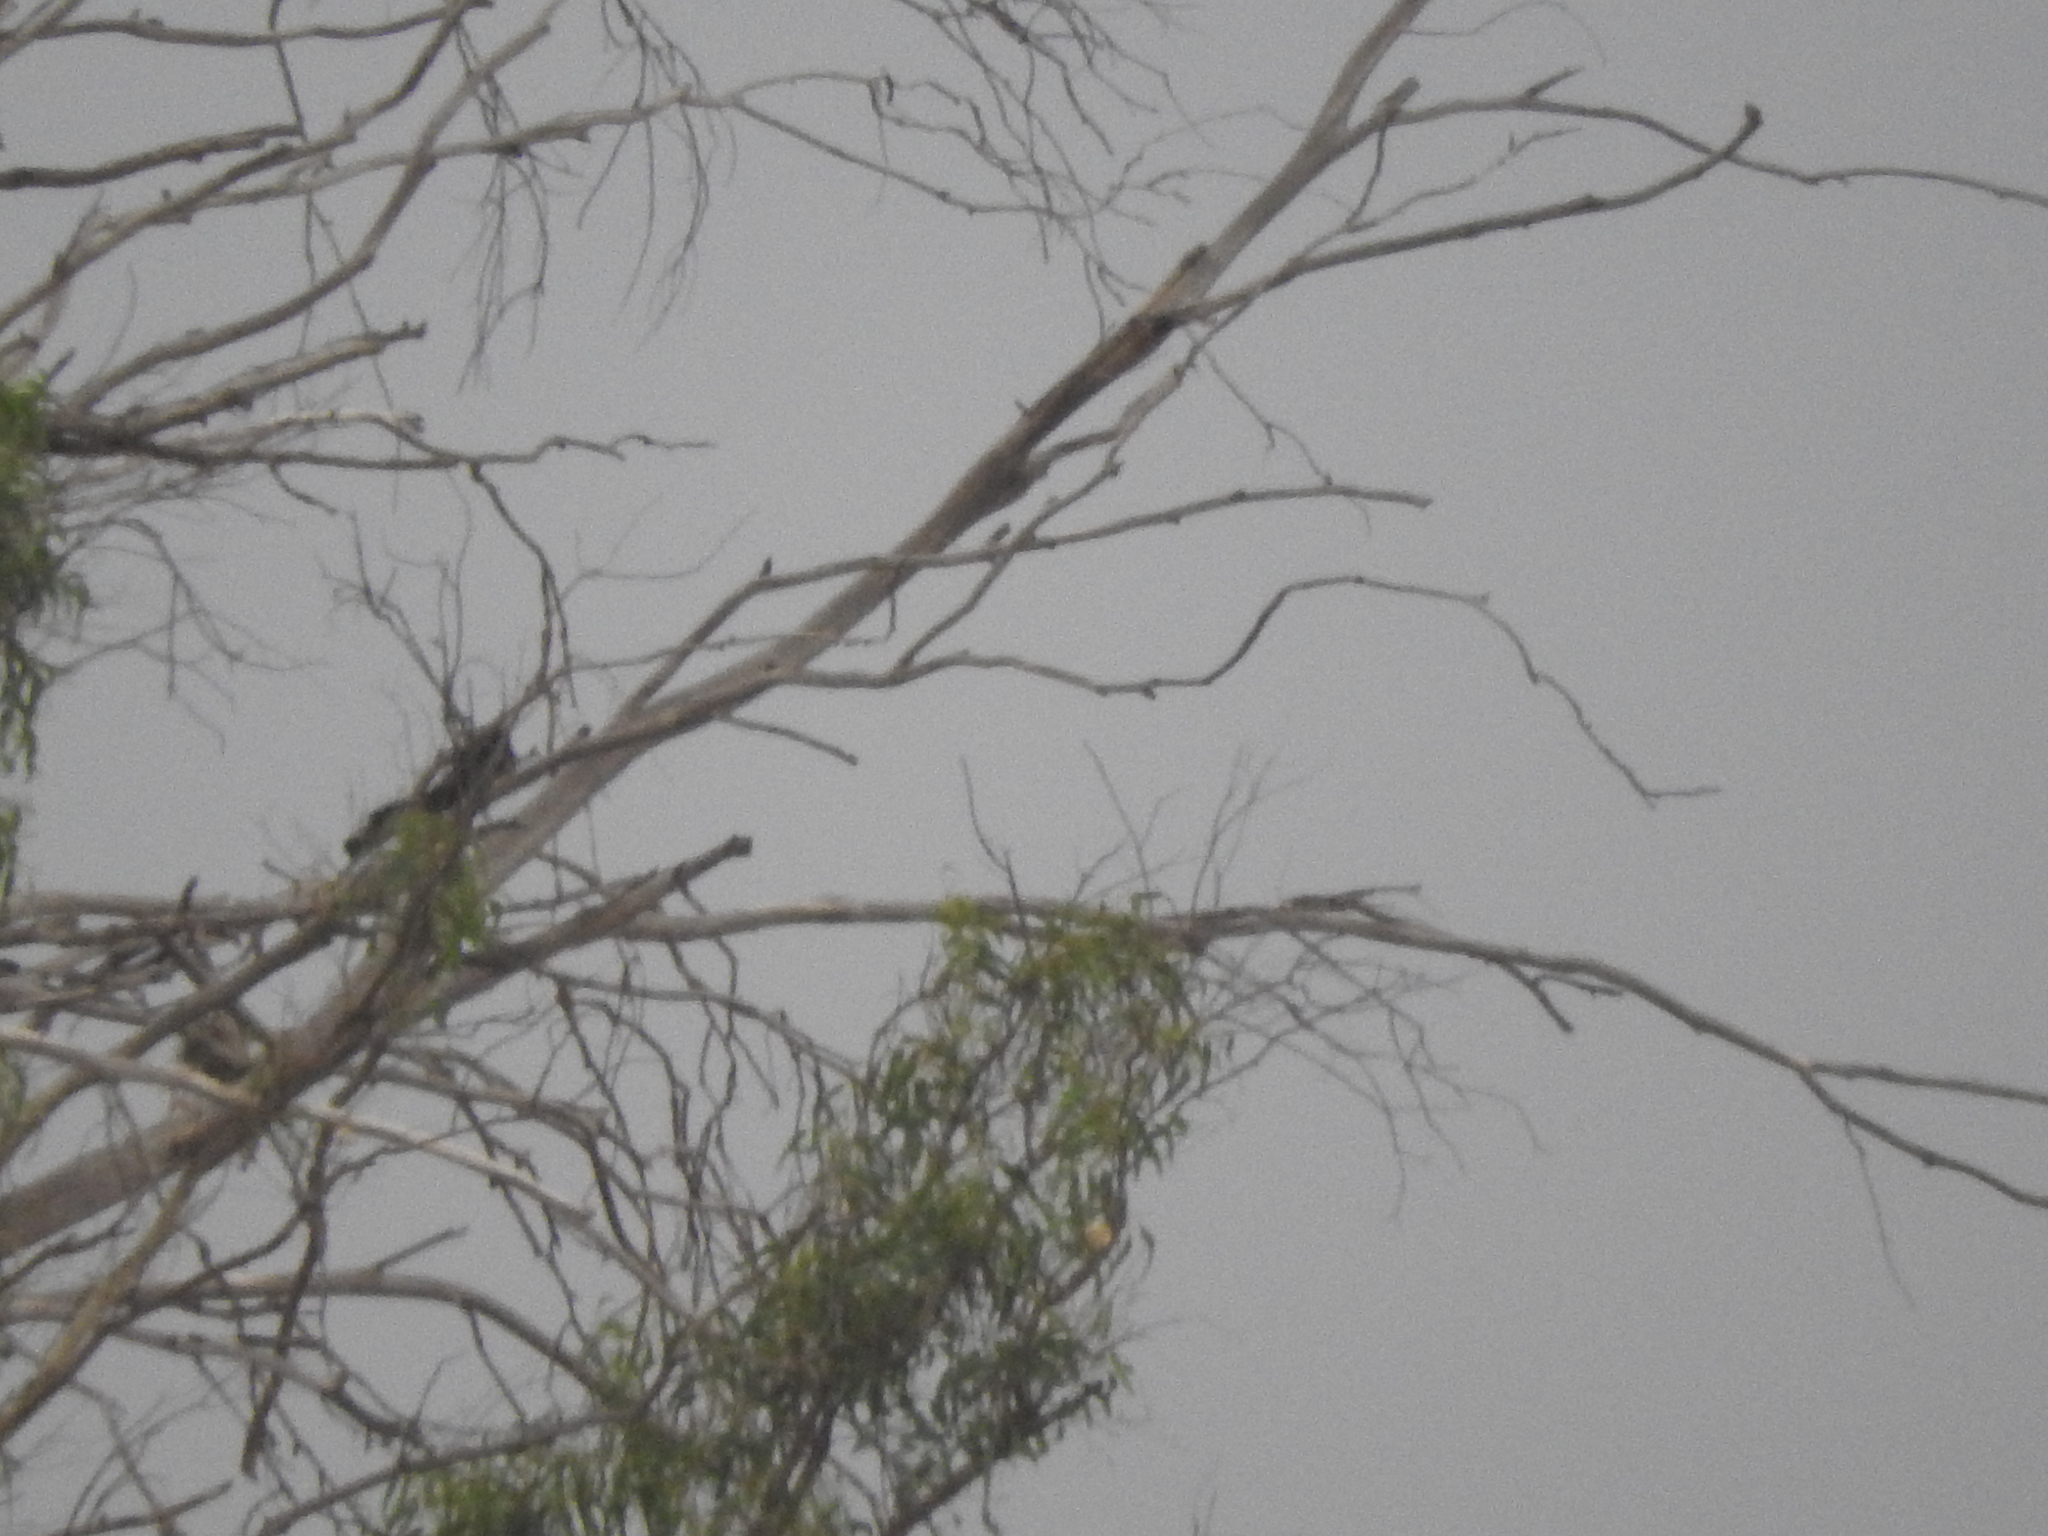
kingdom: Animalia
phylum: Chordata
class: Aves
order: Passeriformes
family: Icteridae
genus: Quiscalus
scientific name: Quiscalus mexicanus
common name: Great-tailed grackle
